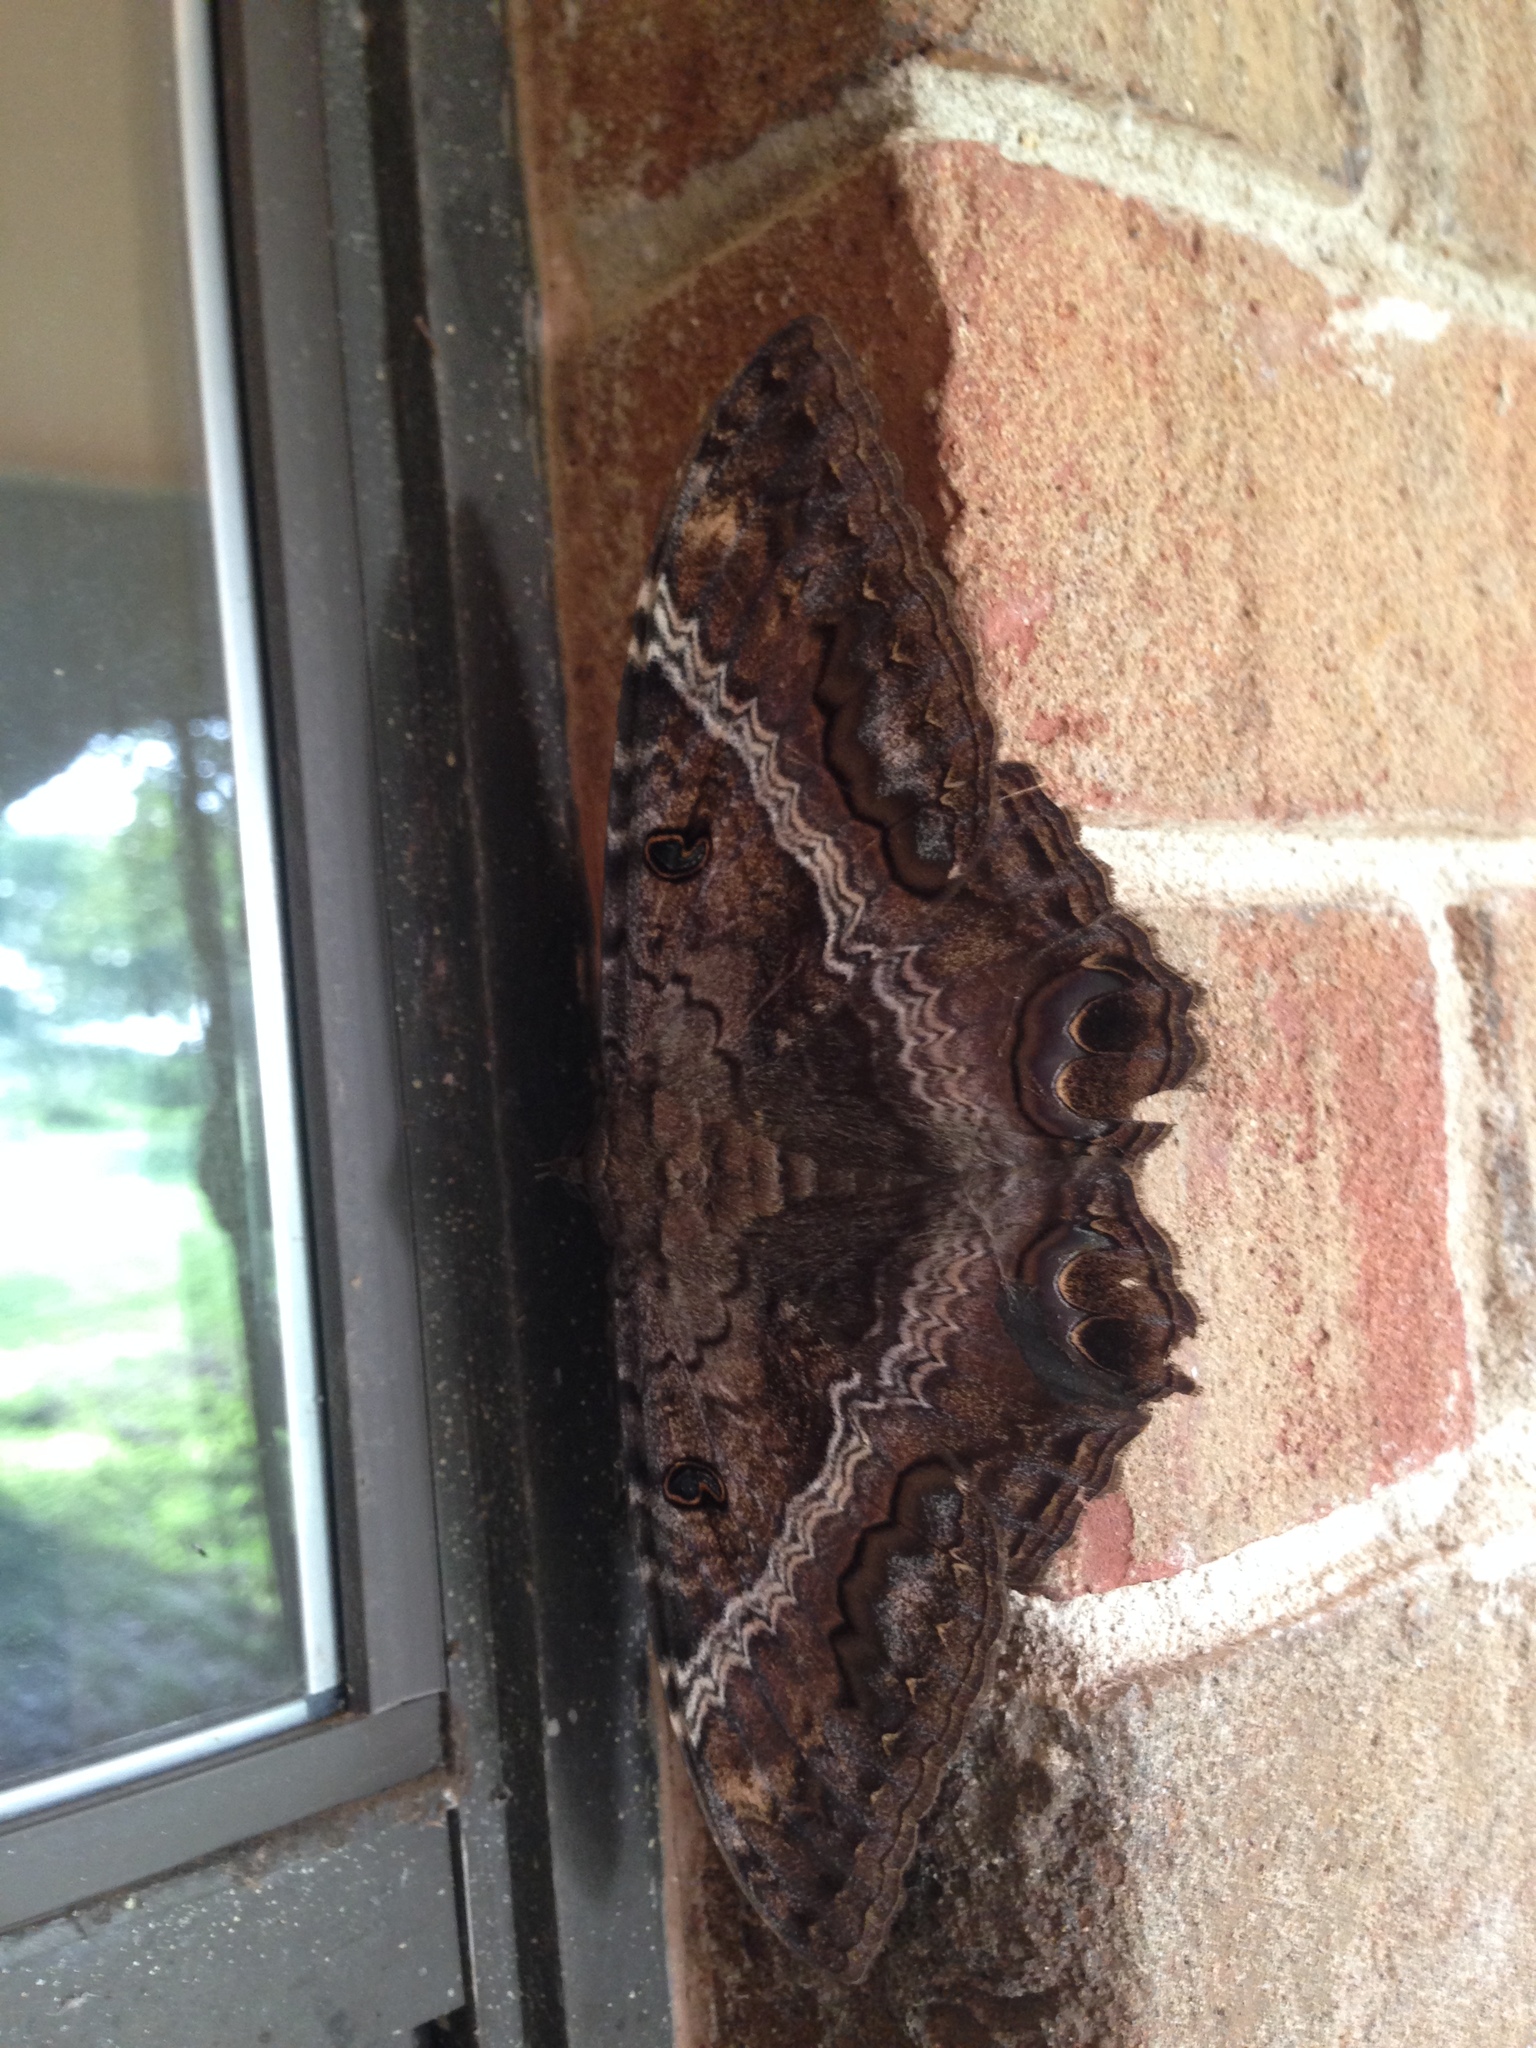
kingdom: Animalia
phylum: Arthropoda
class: Insecta
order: Lepidoptera
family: Erebidae
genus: Ascalapha
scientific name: Ascalapha odorata
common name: Black witch
